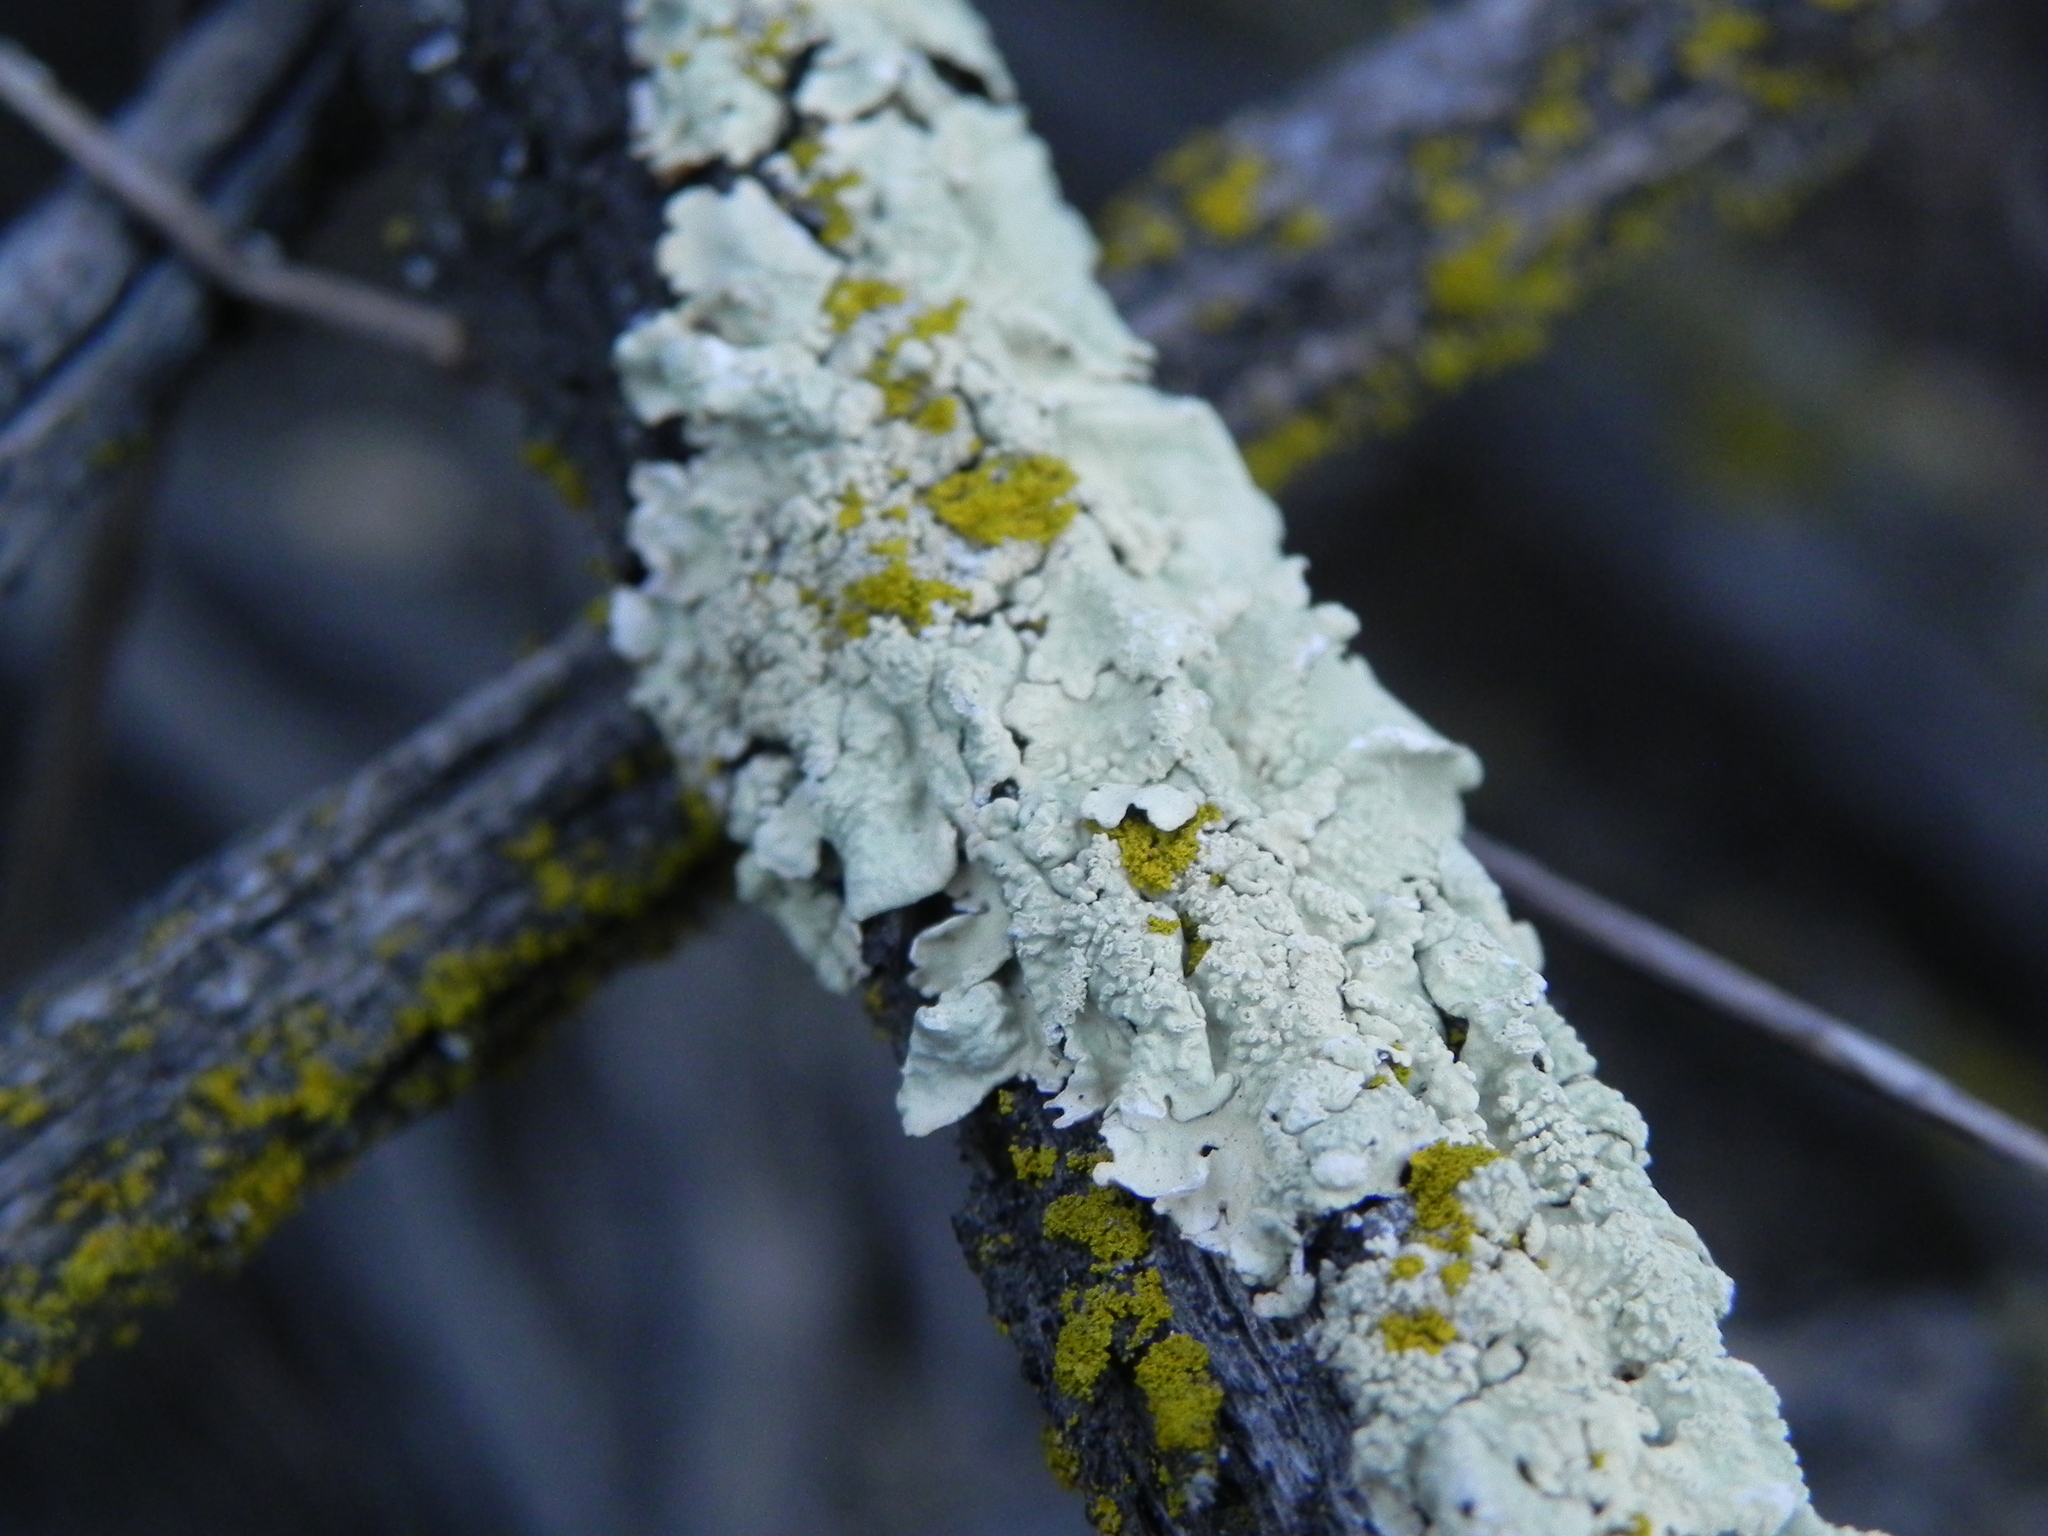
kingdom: Fungi
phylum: Ascomycota
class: Lecanoromycetes
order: Lecanorales
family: Parmeliaceae
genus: Flavoparmelia
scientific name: Flavoparmelia caperata
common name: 40-mile per hour lichen
